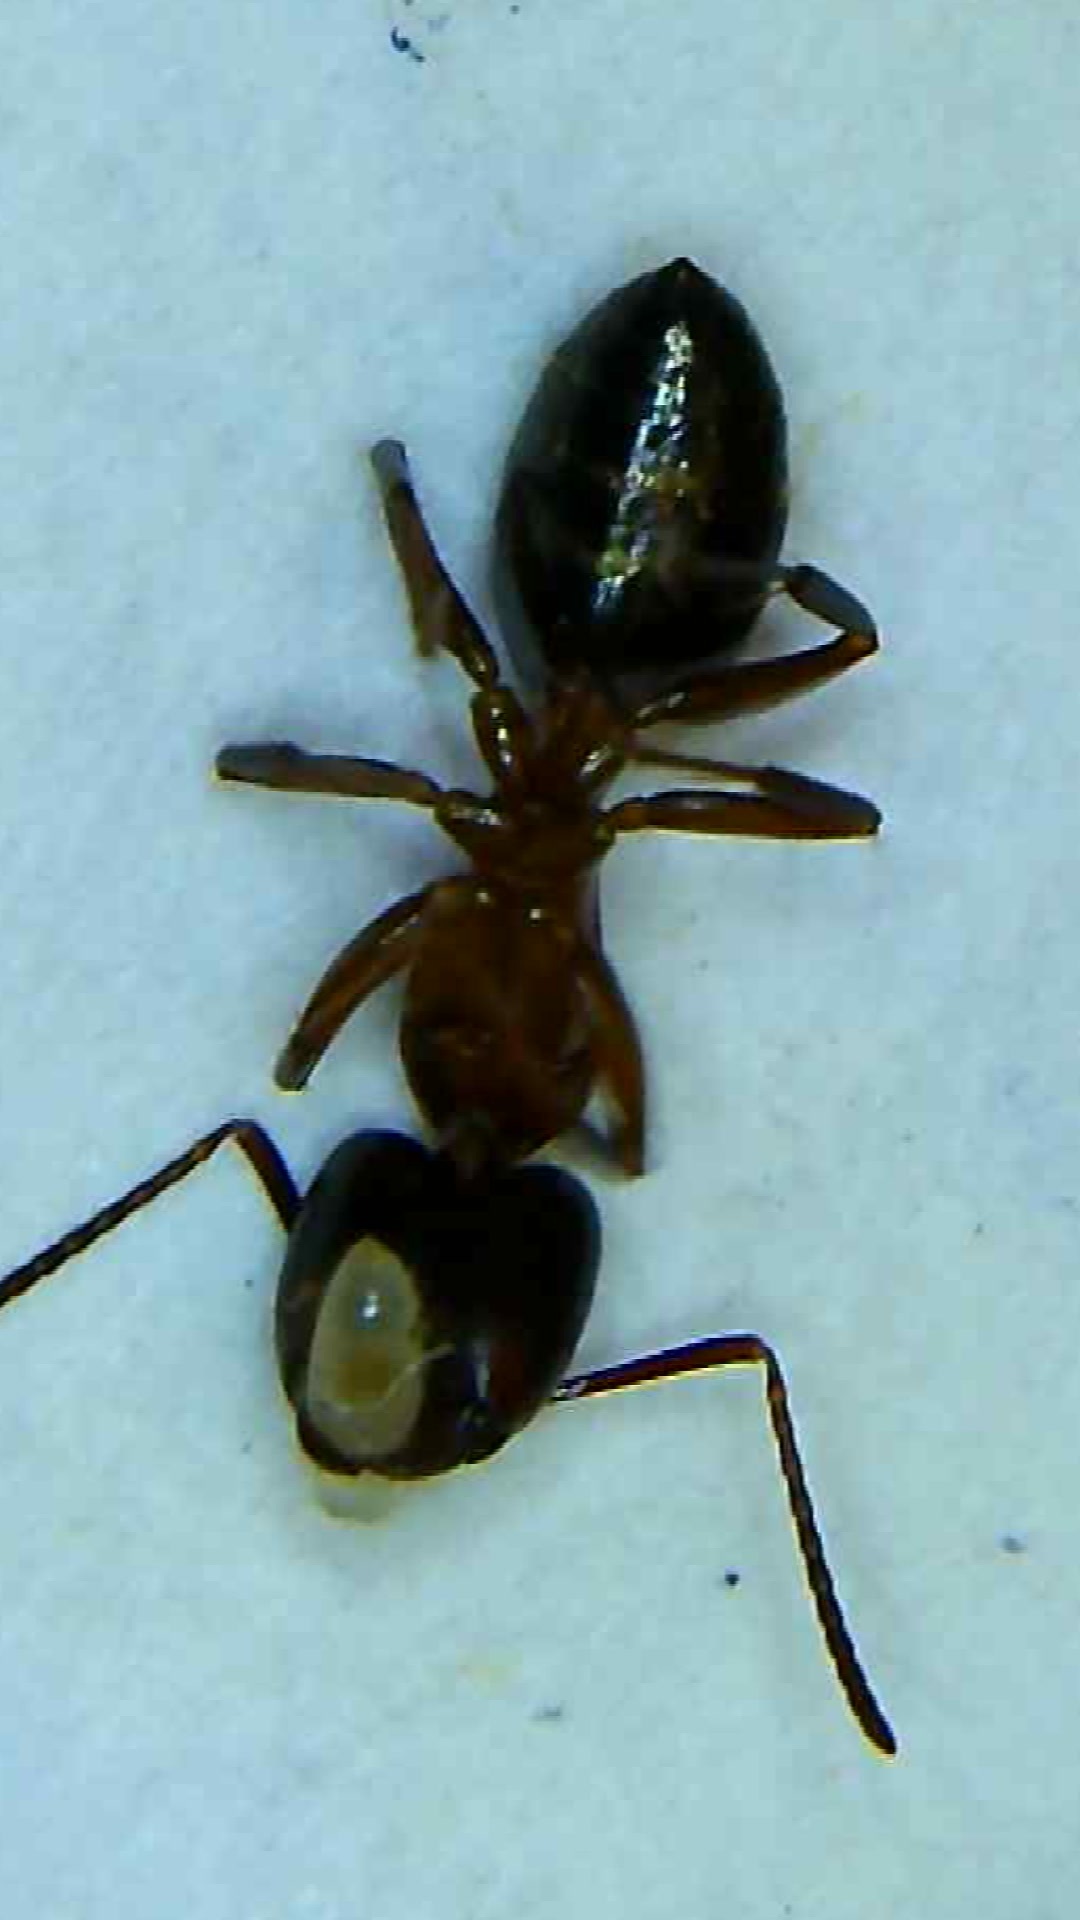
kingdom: Animalia
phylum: Arthropoda
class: Insecta
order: Hymenoptera
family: Formicidae
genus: Camponotus
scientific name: Camponotus novaeboracensis
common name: New york carpenter ant
